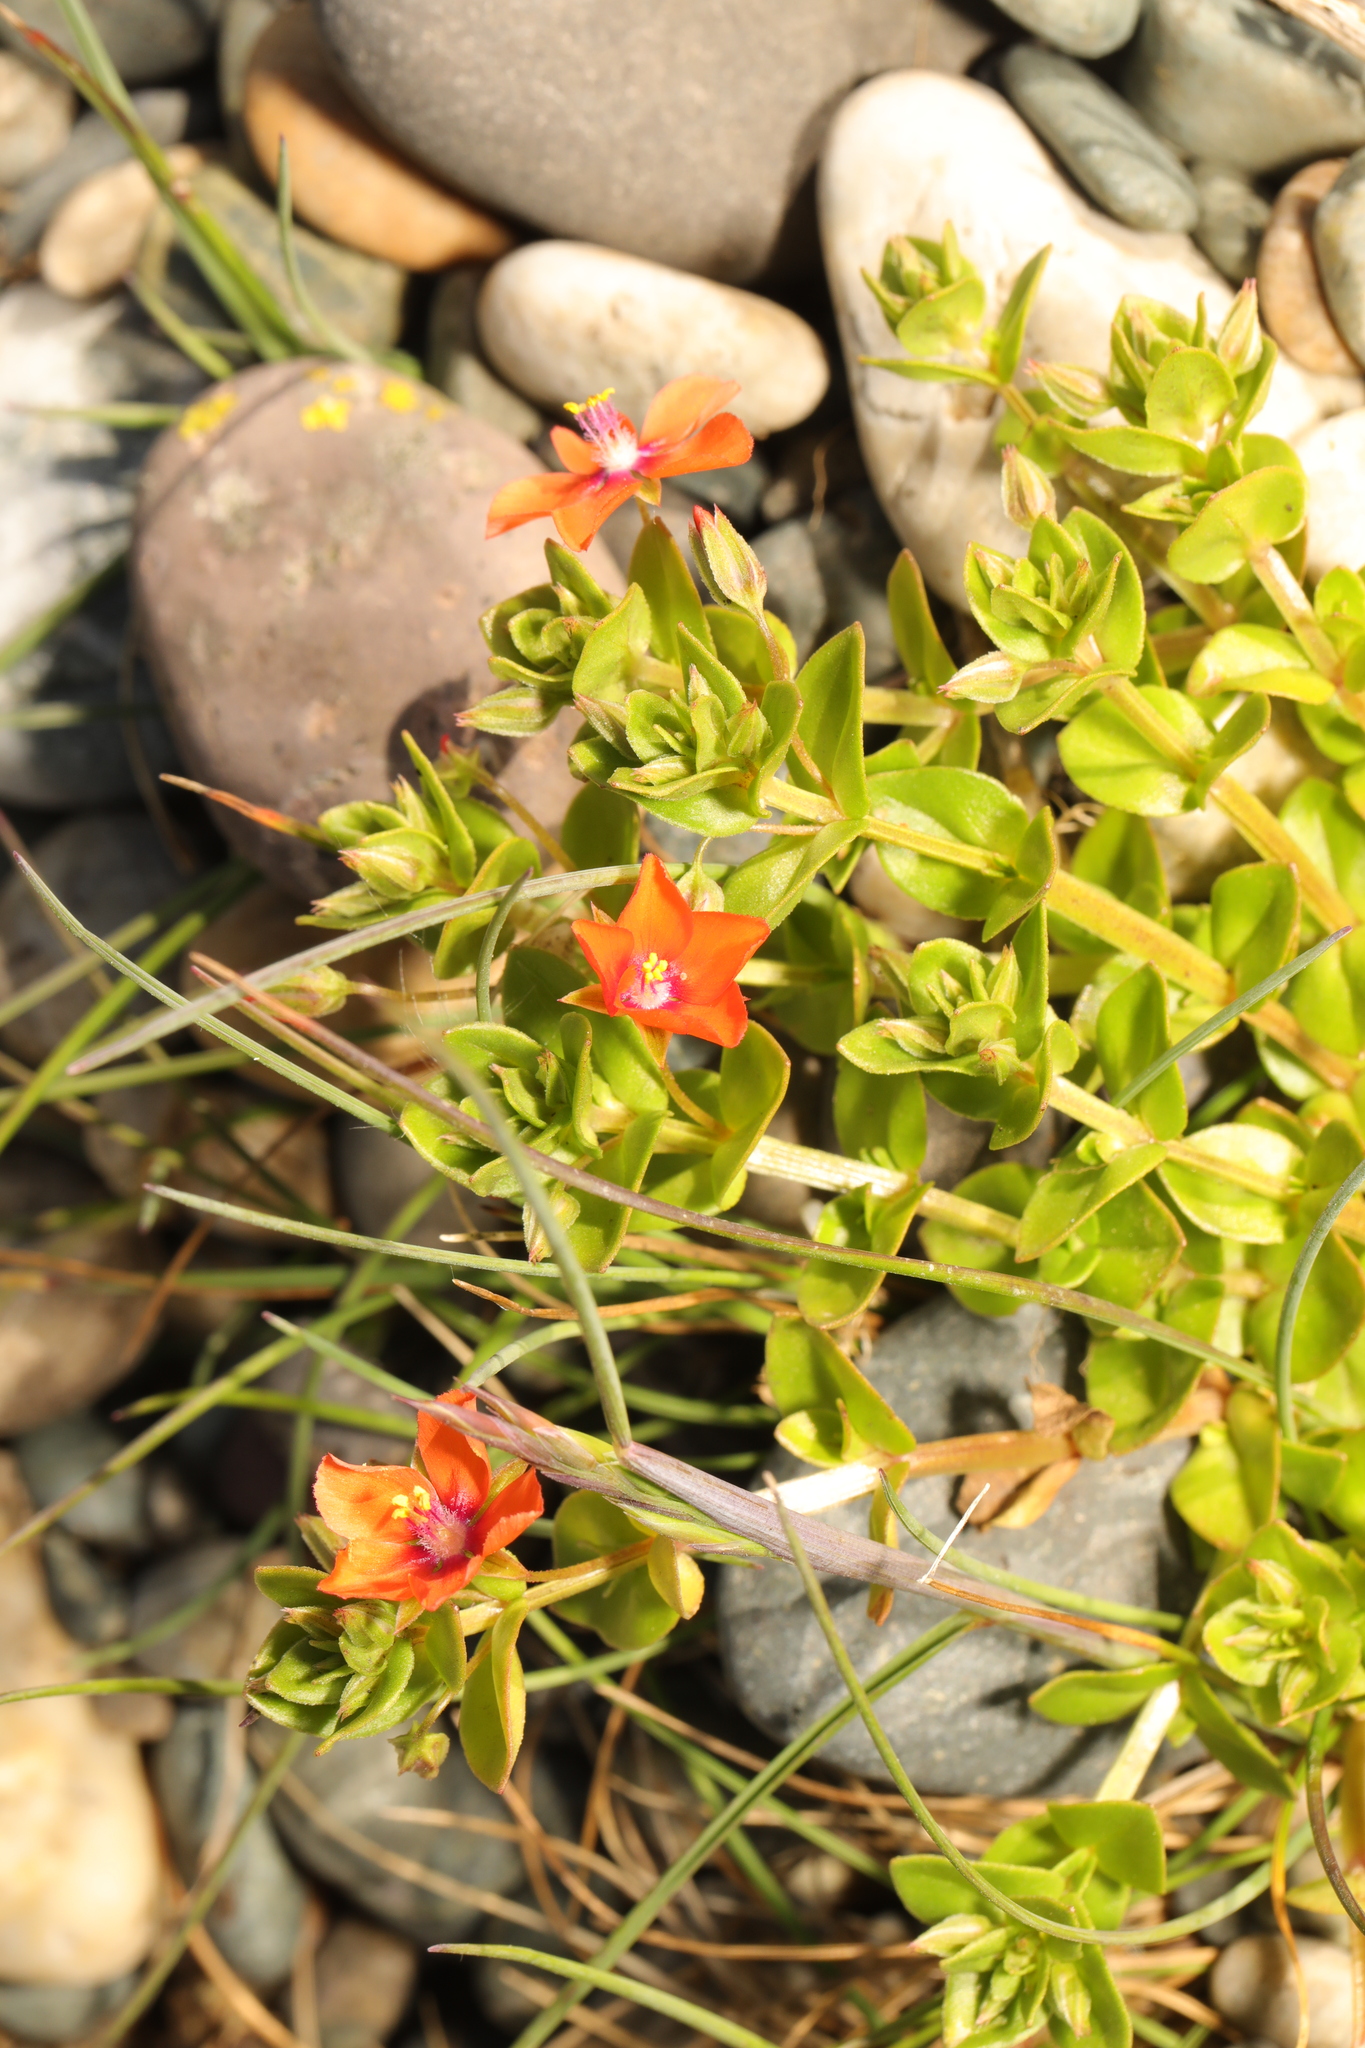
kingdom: Plantae
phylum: Tracheophyta
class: Magnoliopsida
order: Ericales
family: Primulaceae
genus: Lysimachia
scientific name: Lysimachia arvensis
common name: Scarlet pimpernel
